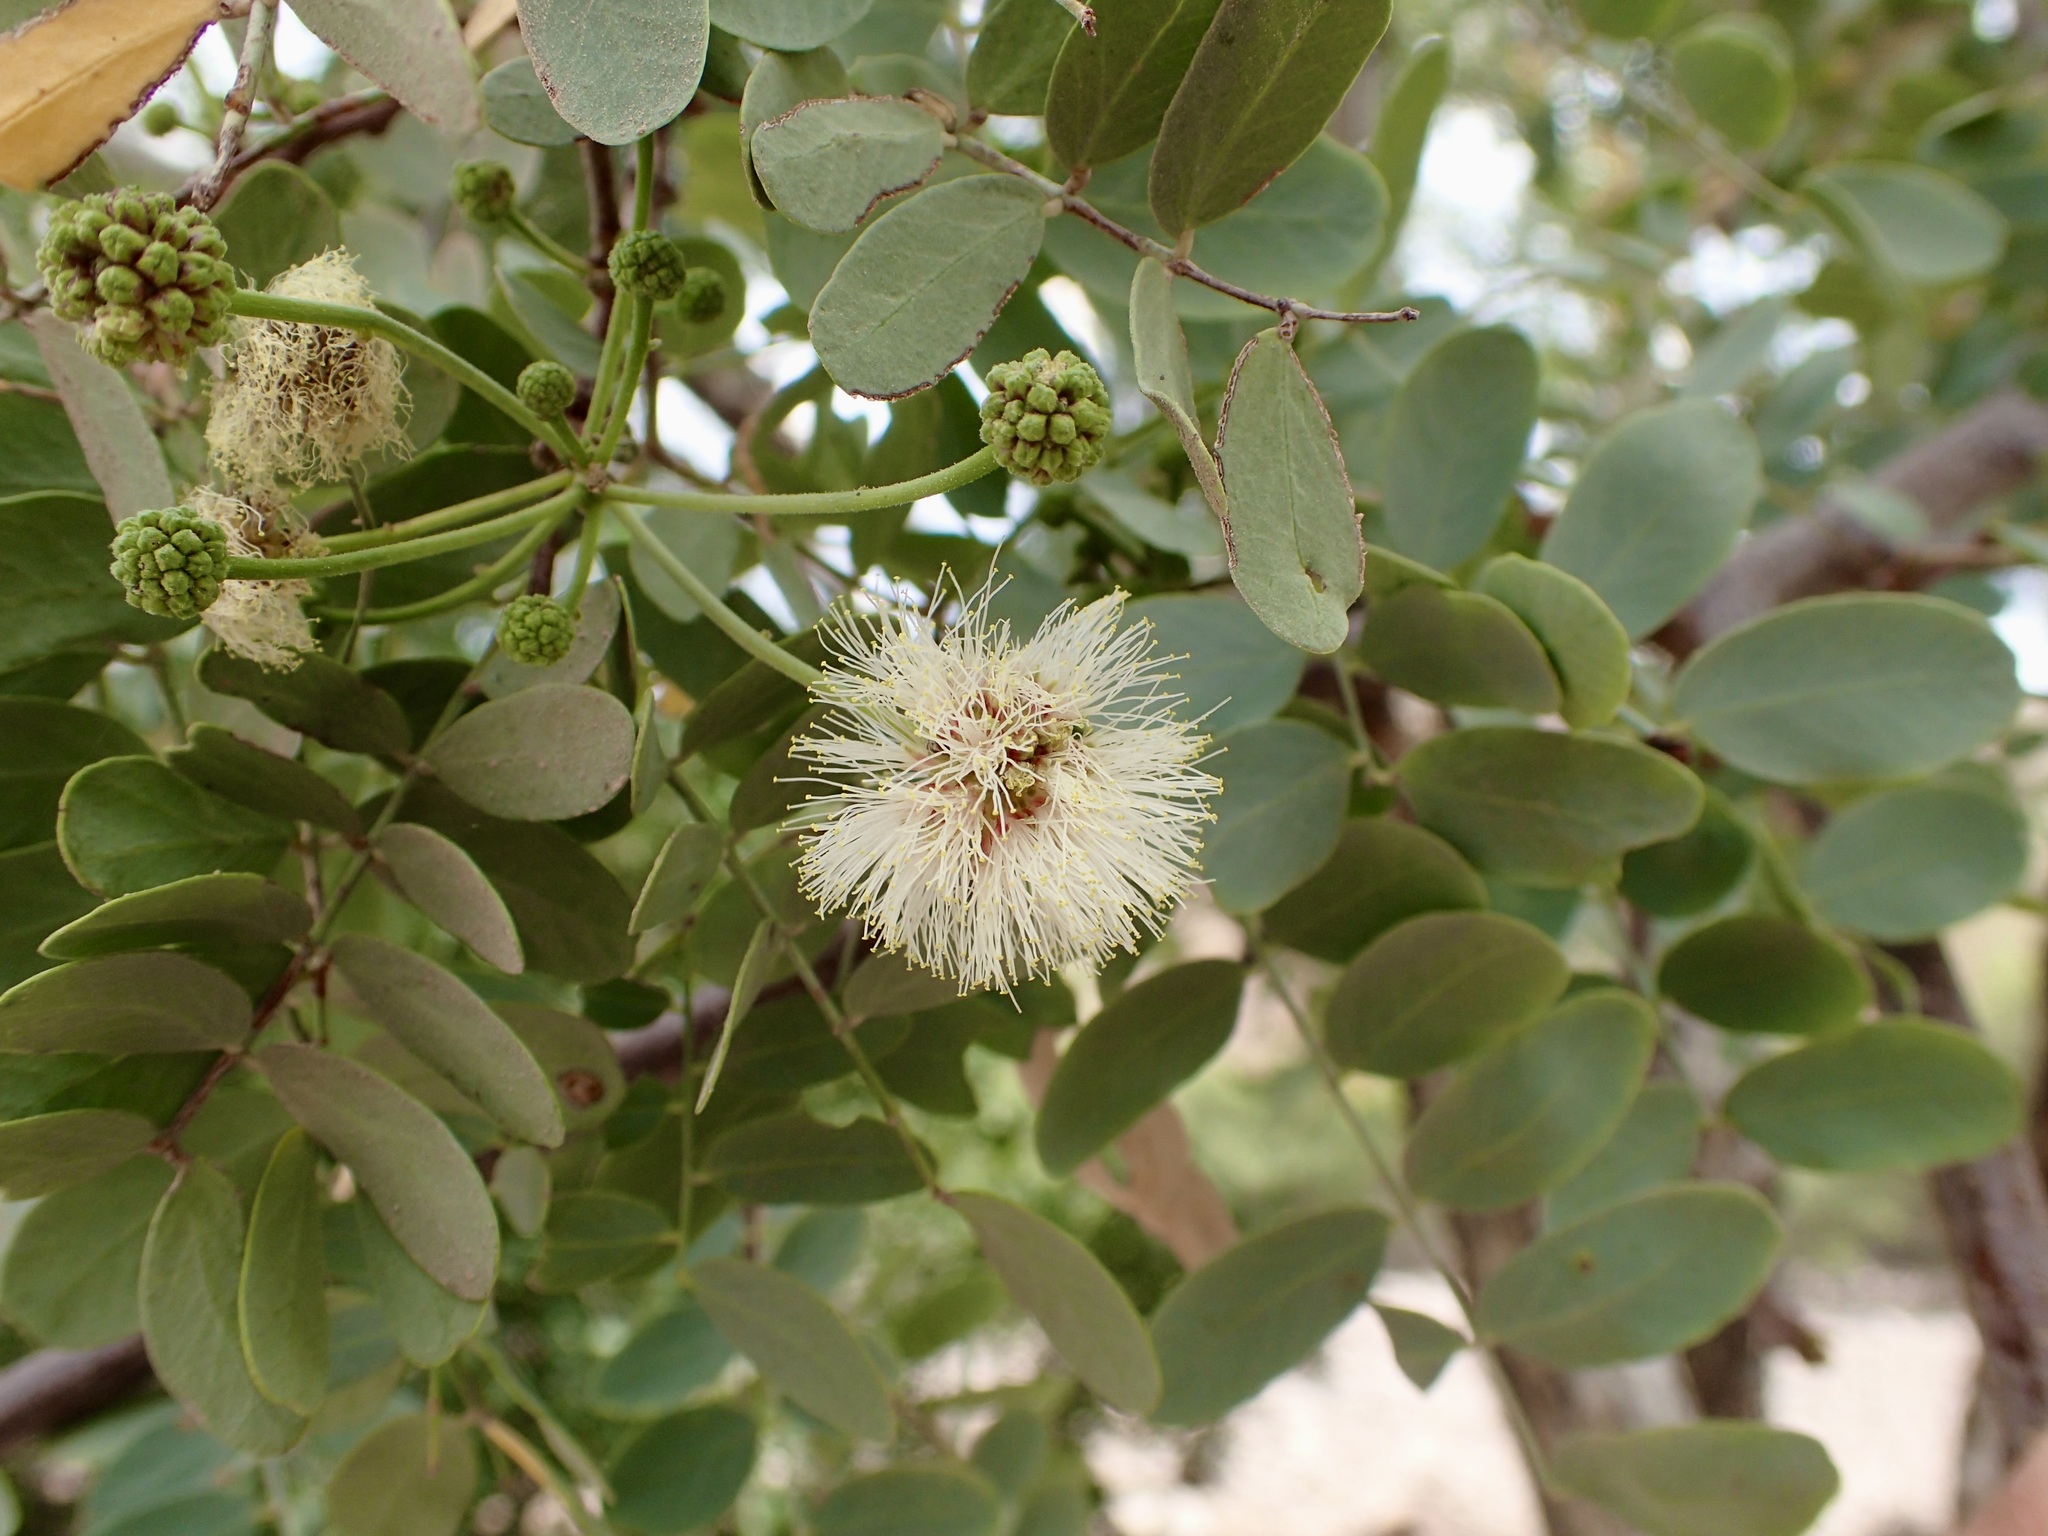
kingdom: Plantae
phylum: Tracheophyta
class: Magnoliopsida
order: Fabales
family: Fabaceae
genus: Lysiloma
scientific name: Lysiloma candidum
